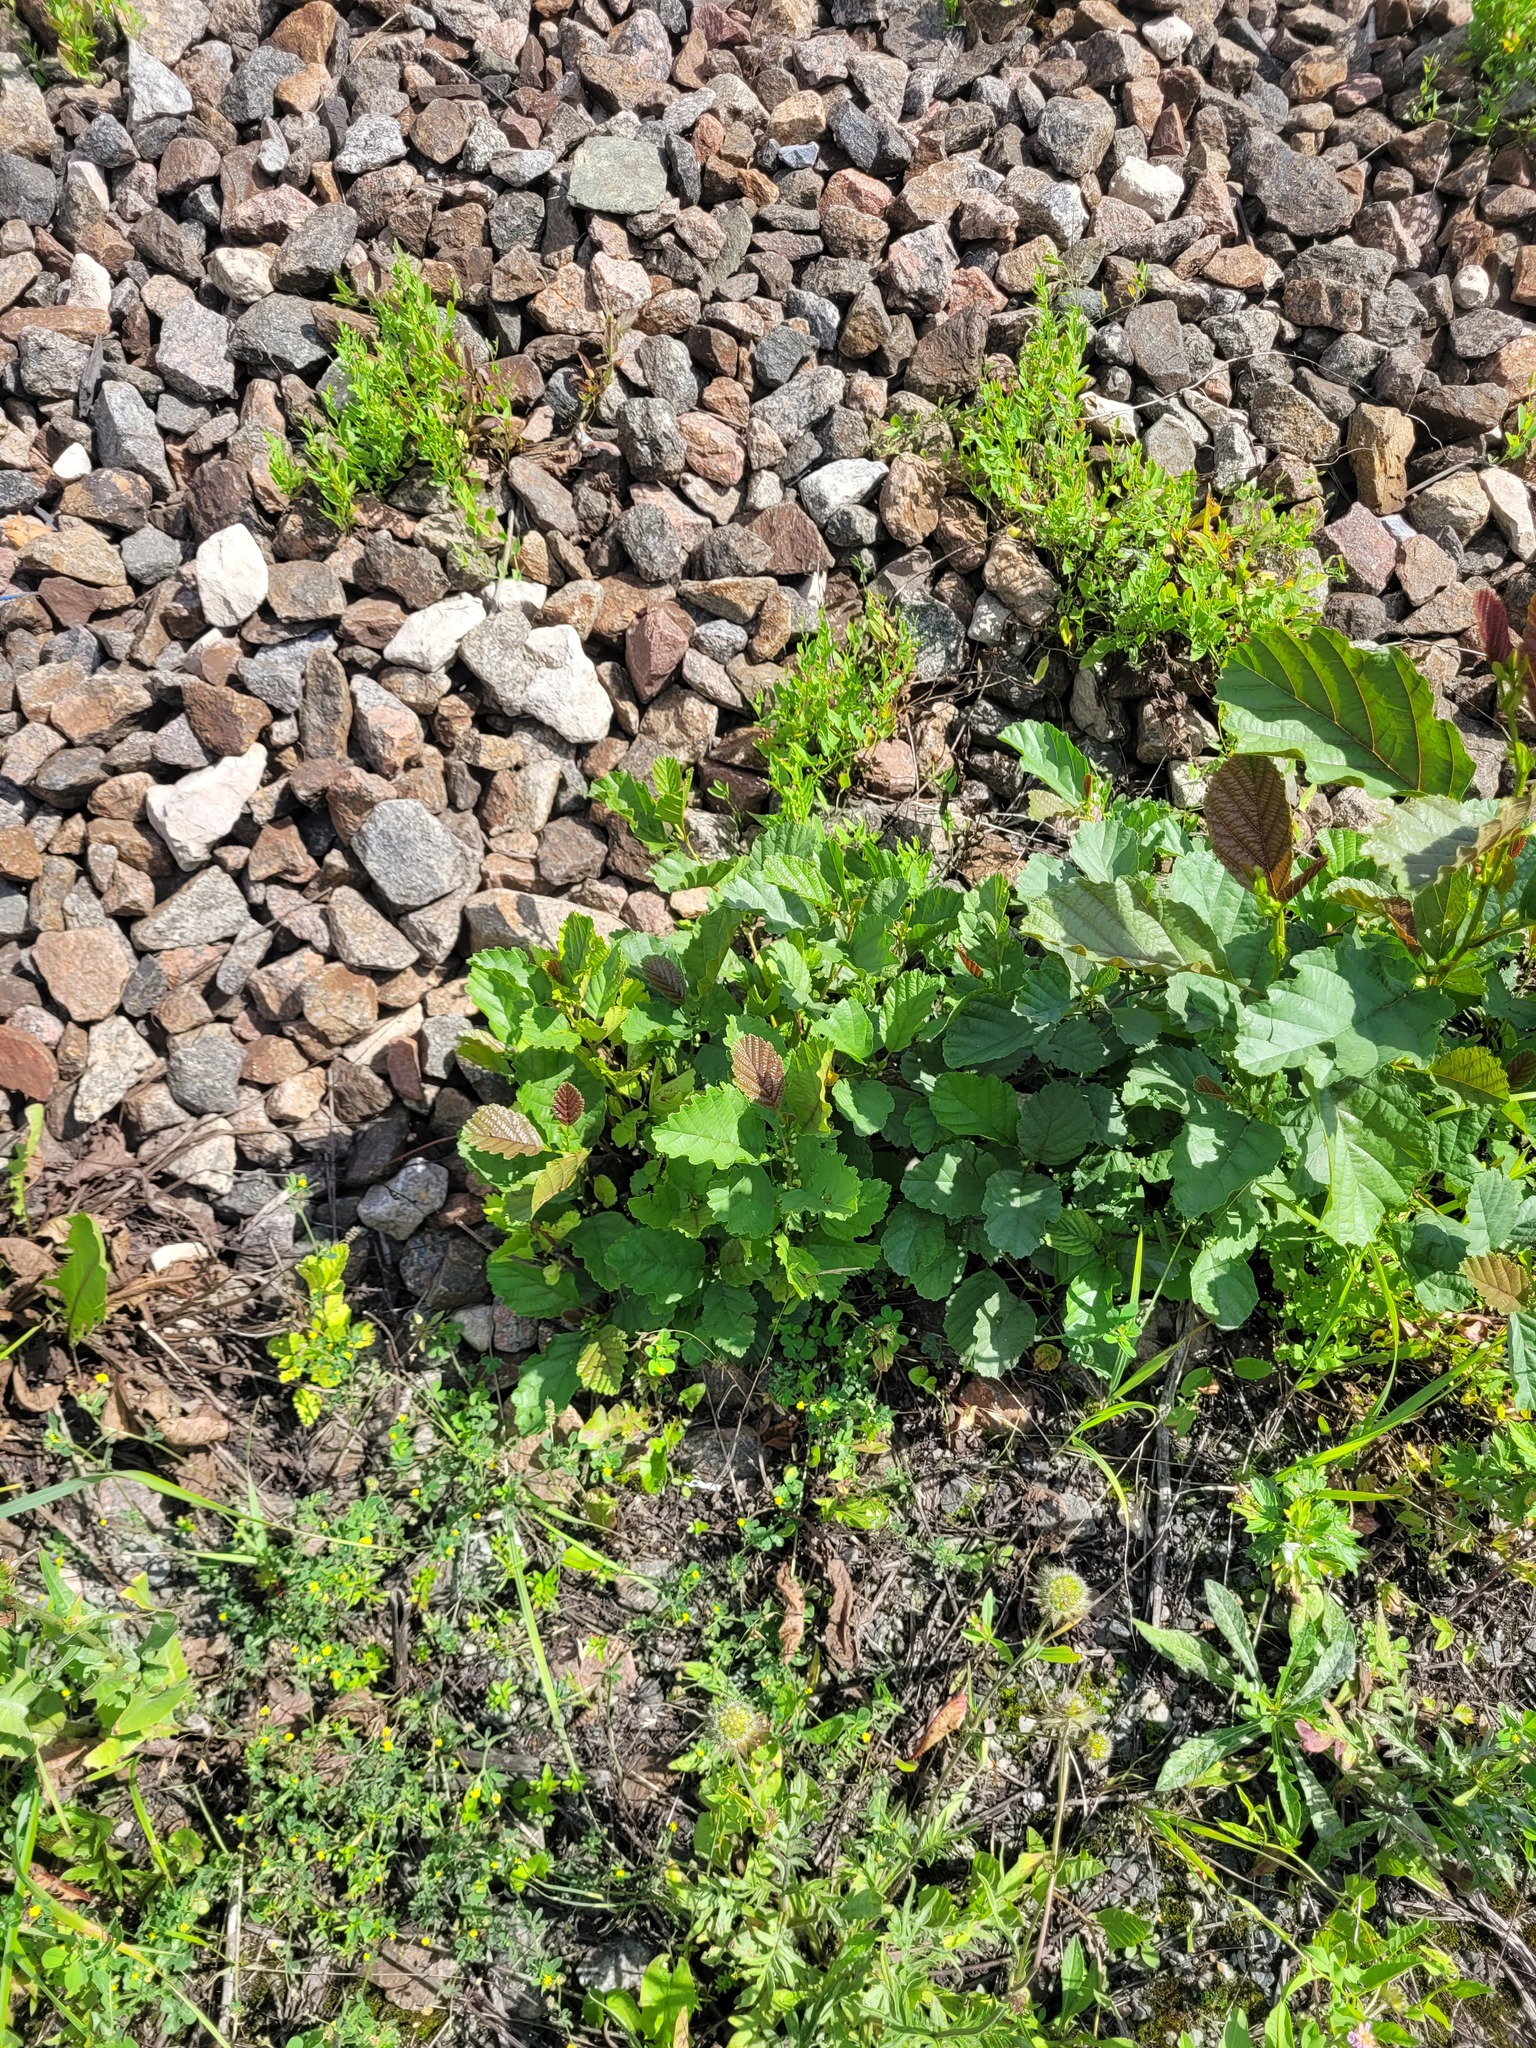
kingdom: Plantae
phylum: Tracheophyta
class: Magnoliopsida
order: Fagales
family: Betulaceae
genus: Alnus
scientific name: Alnus glutinosa
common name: Black alder
